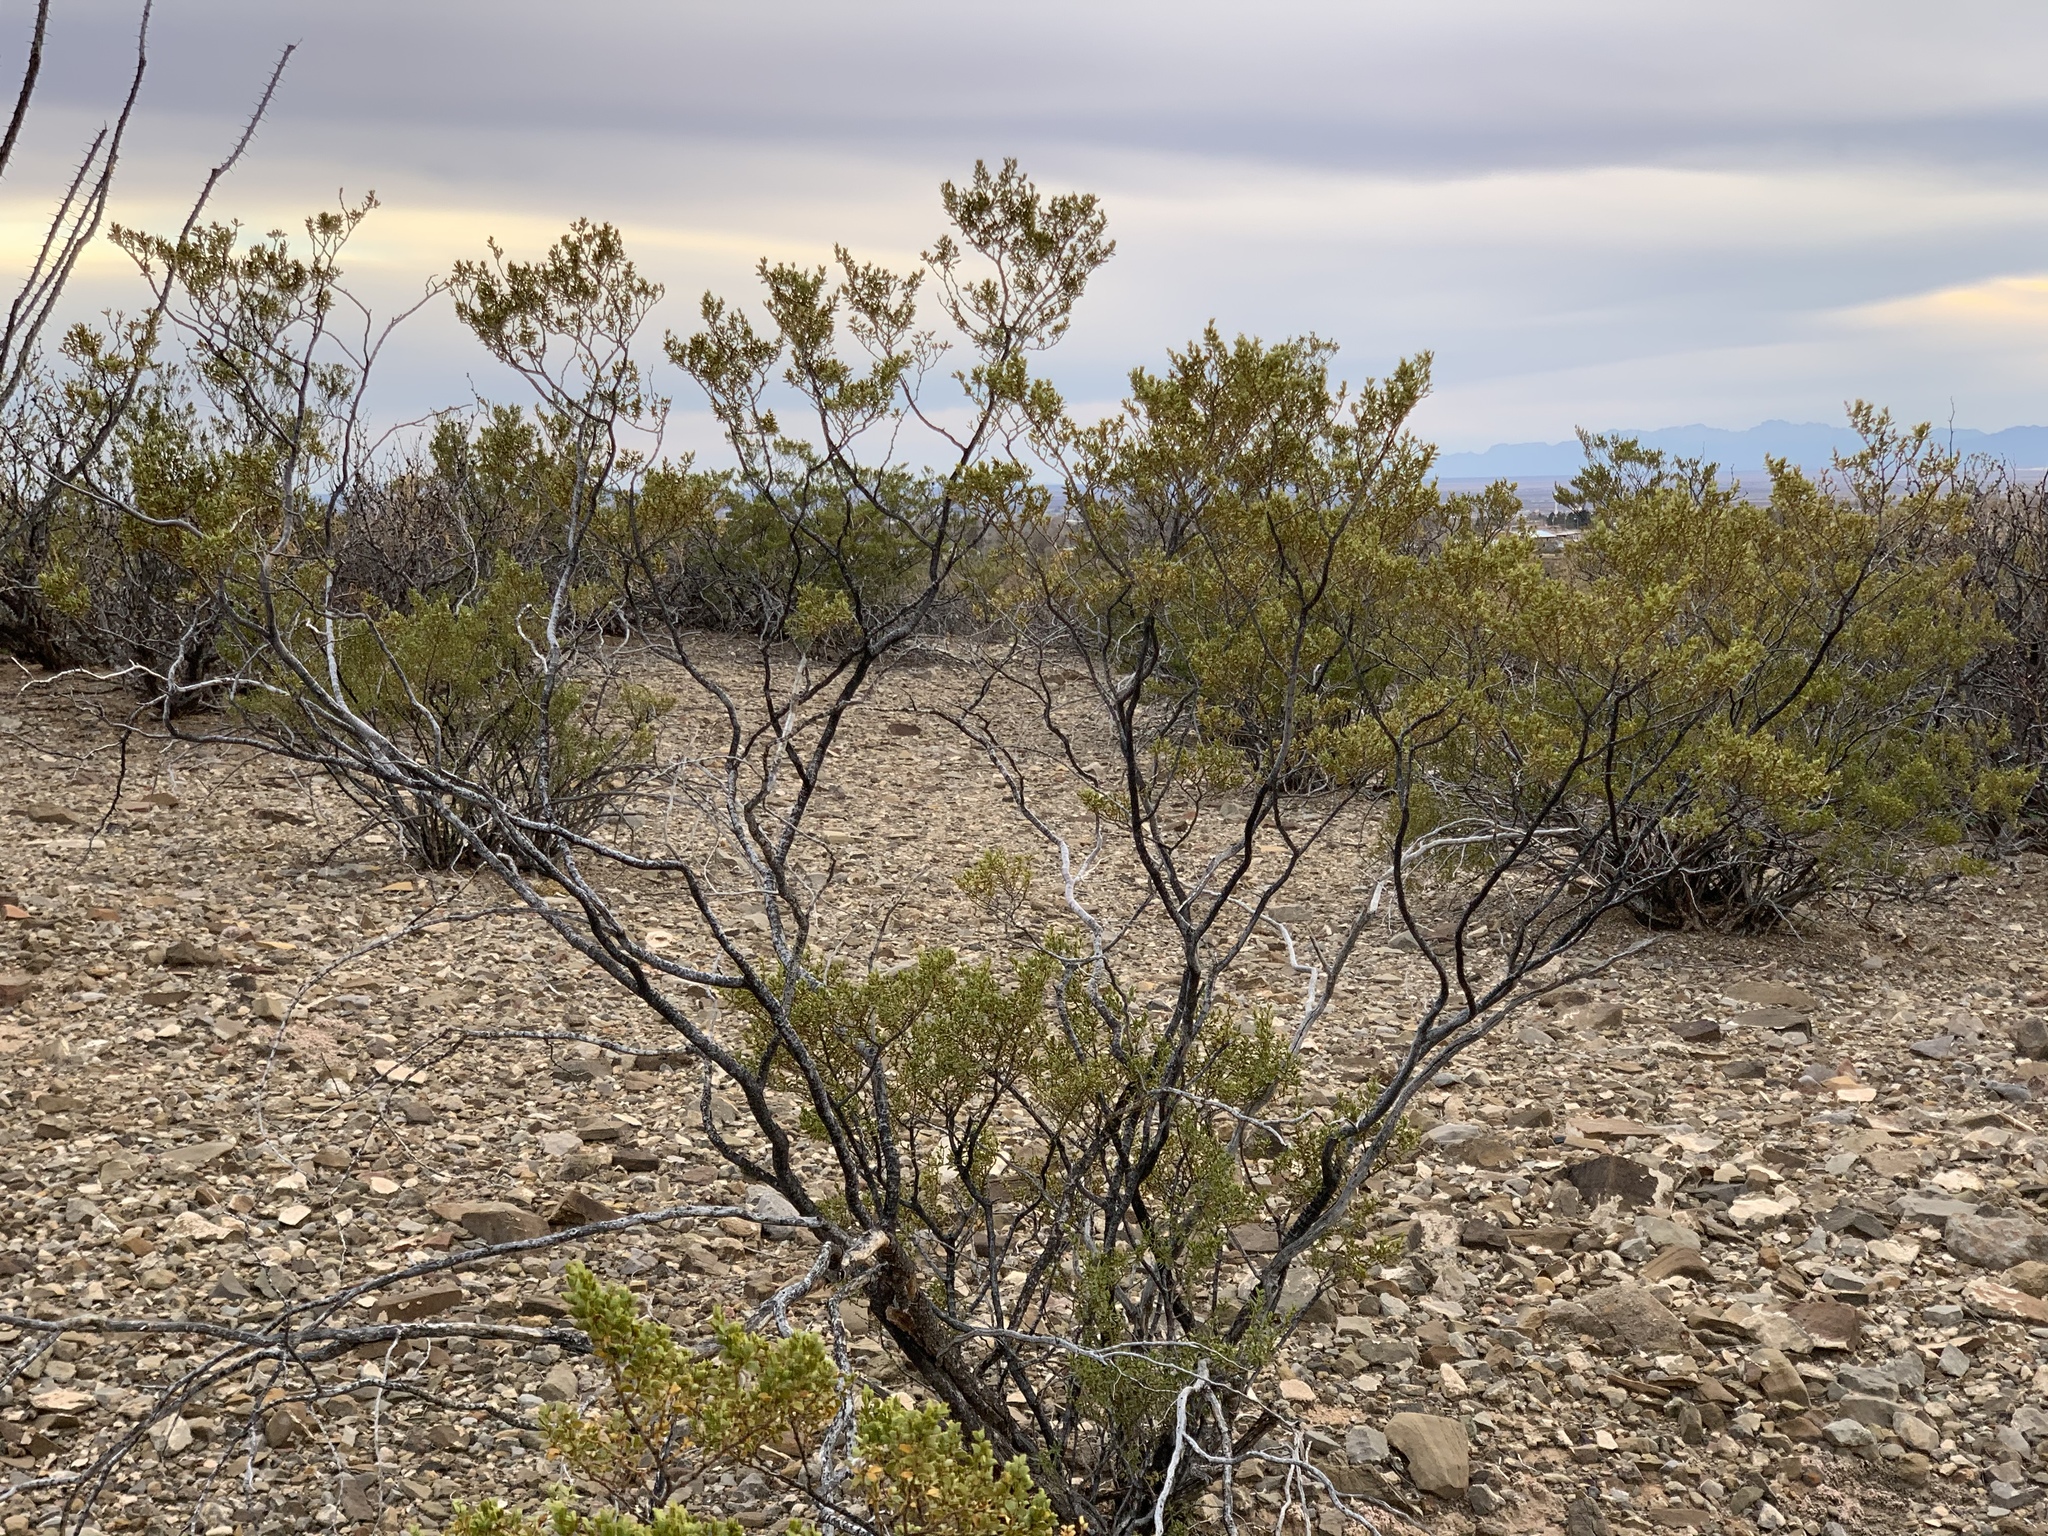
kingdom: Plantae
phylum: Tracheophyta
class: Magnoliopsida
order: Zygophyllales
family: Zygophyllaceae
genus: Larrea
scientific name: Larrea tridentata
